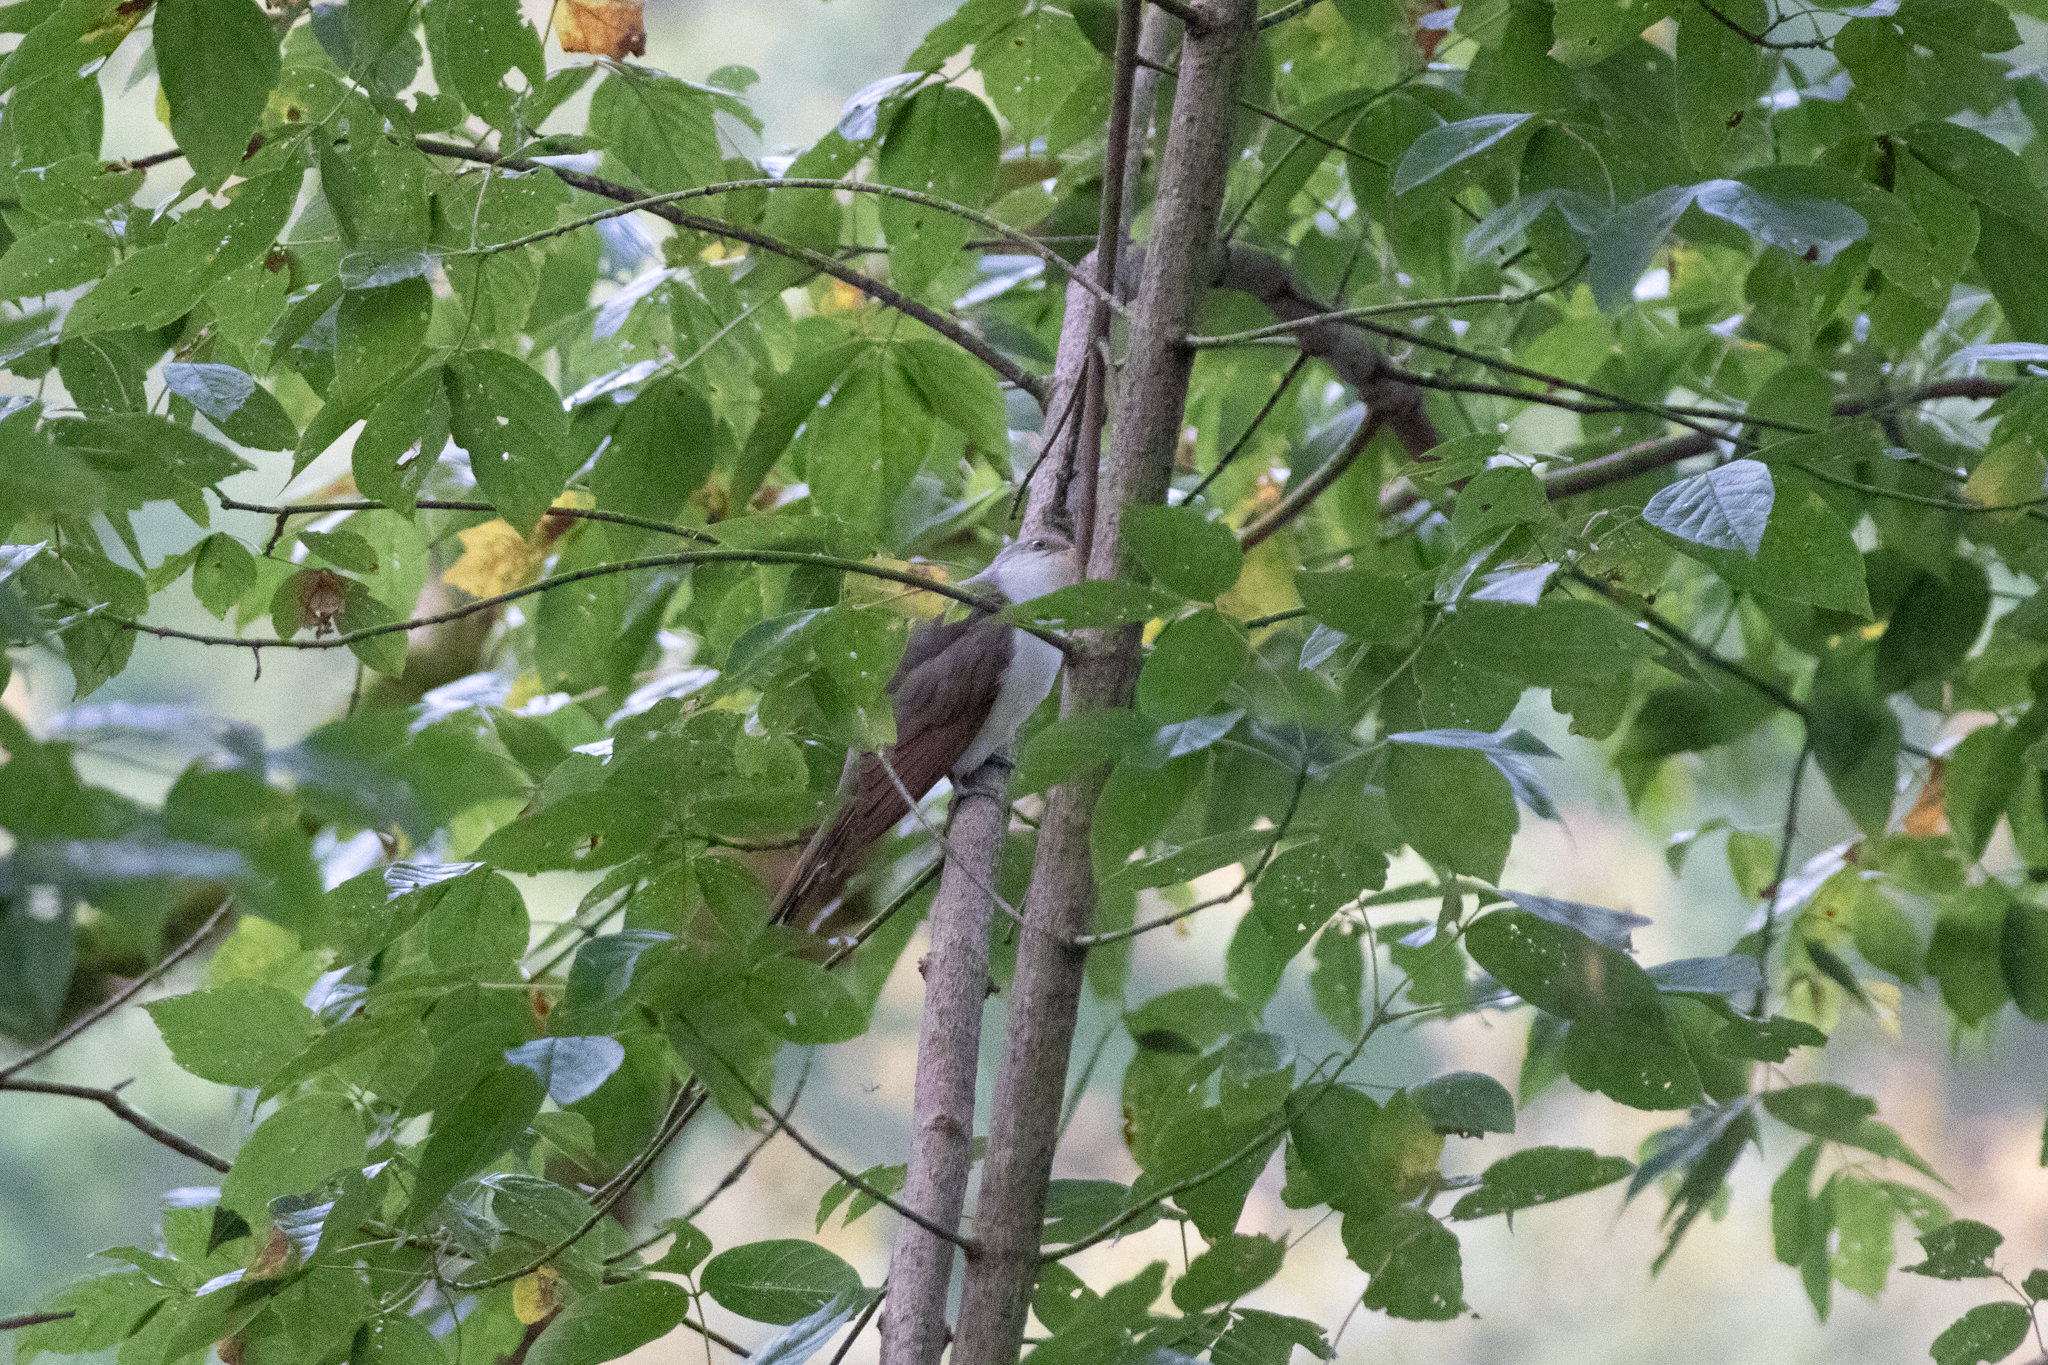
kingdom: Animalia
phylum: Chordata
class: Aves
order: Cuculiformes
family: Cuculidae
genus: Coccyzus
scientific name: Coccyzus americanus
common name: Yellow-billed cuckoo
